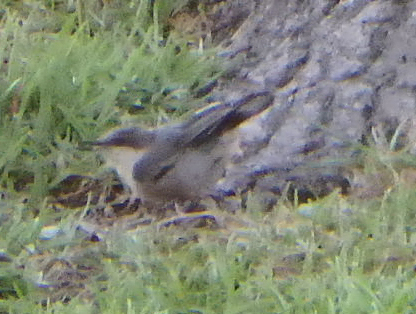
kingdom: Animalia
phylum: Chordata
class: Aves
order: Passeriformes
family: Sittidae
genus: Sitta
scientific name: Sitta pusilla
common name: Brown-headed nuthatch
